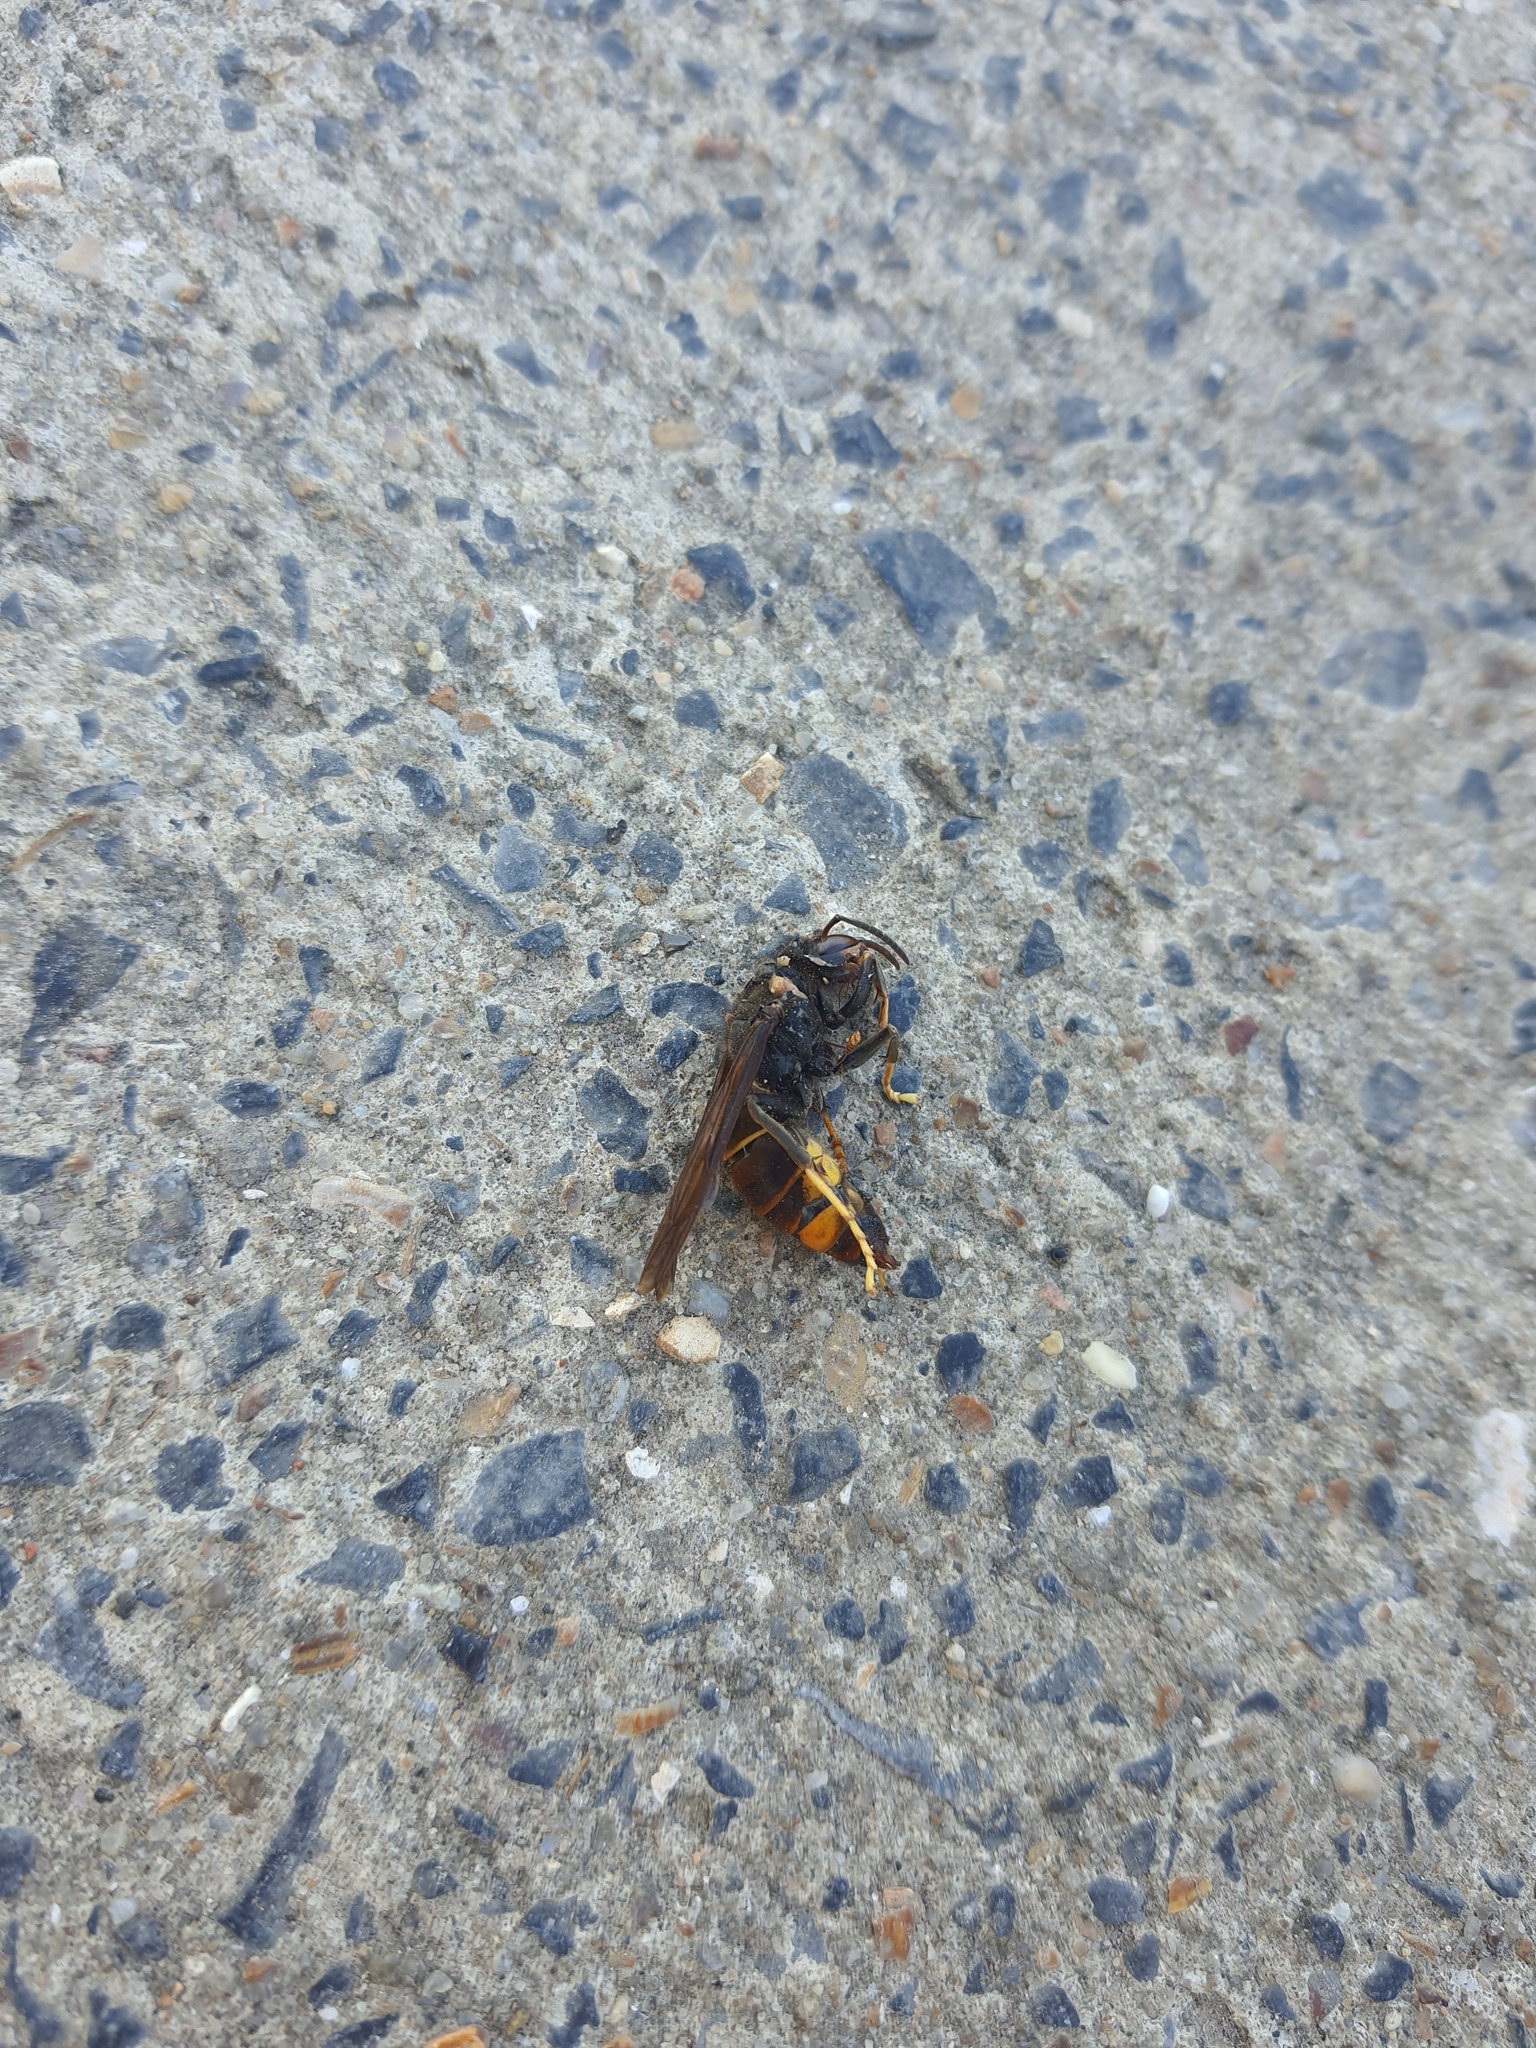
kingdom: Animalia
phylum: Arthropoda
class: Insecta
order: Hymenoptera
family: Vespidae
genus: Vespa
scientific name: Vespa velutina
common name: Asian hornet
